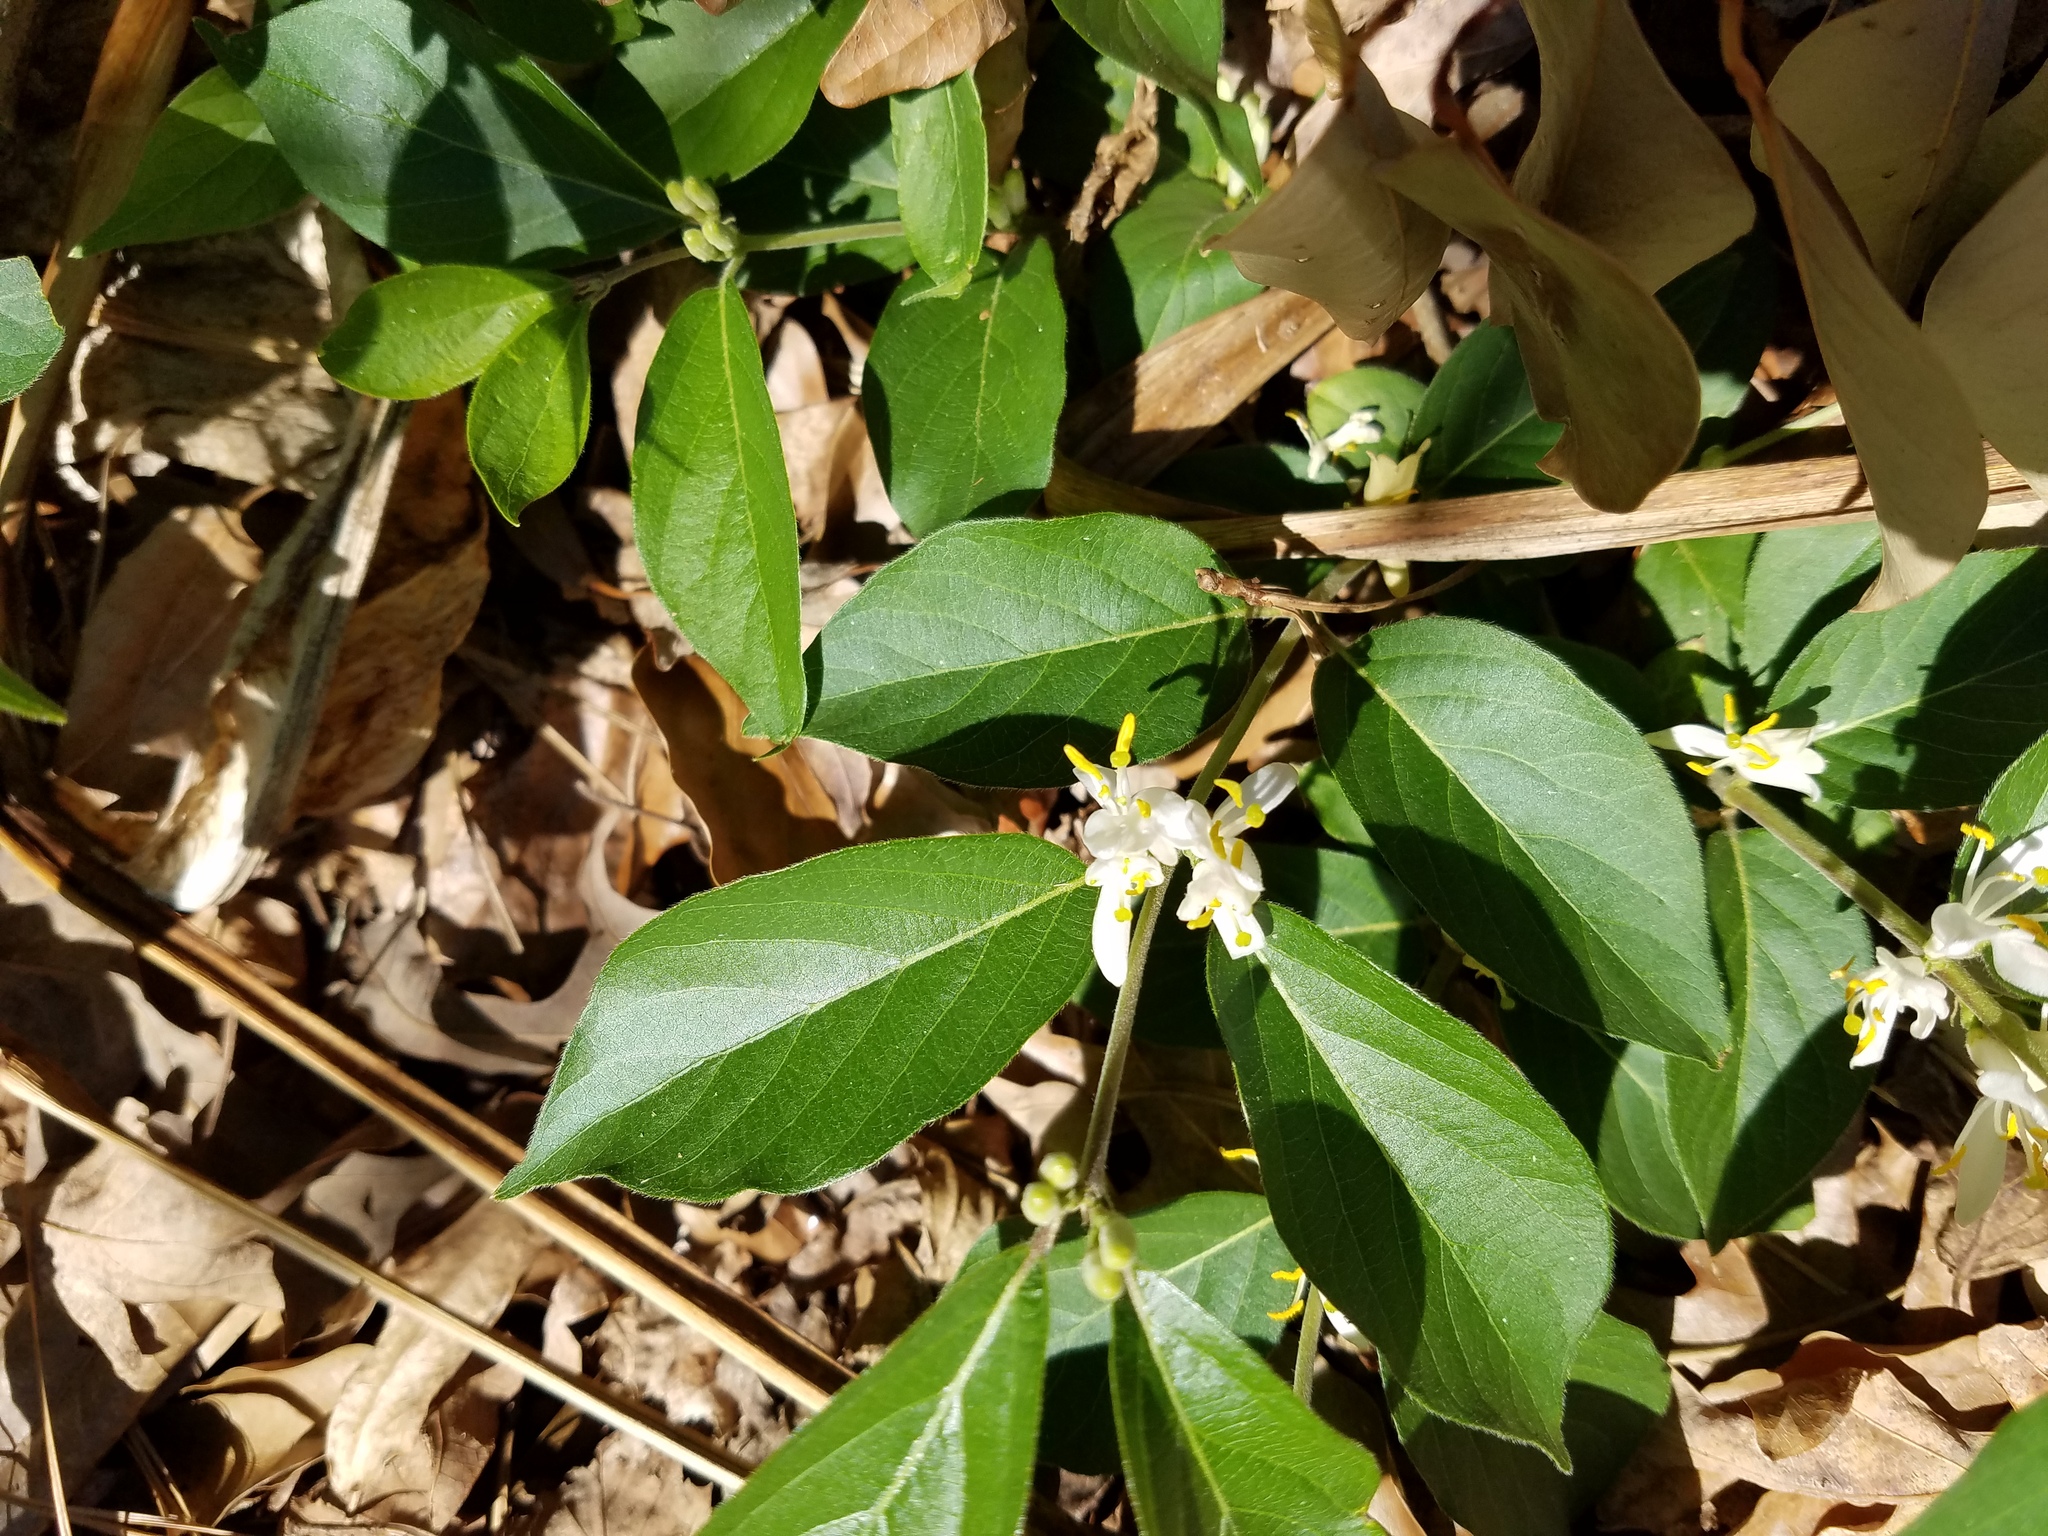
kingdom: Plantae
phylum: Tracheophyta
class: Magnoliopsida
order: Dipsacales
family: Caprifoliaceae
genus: Lonicera
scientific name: Lonicera fragrantissima
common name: Fragrant honeysuckle
